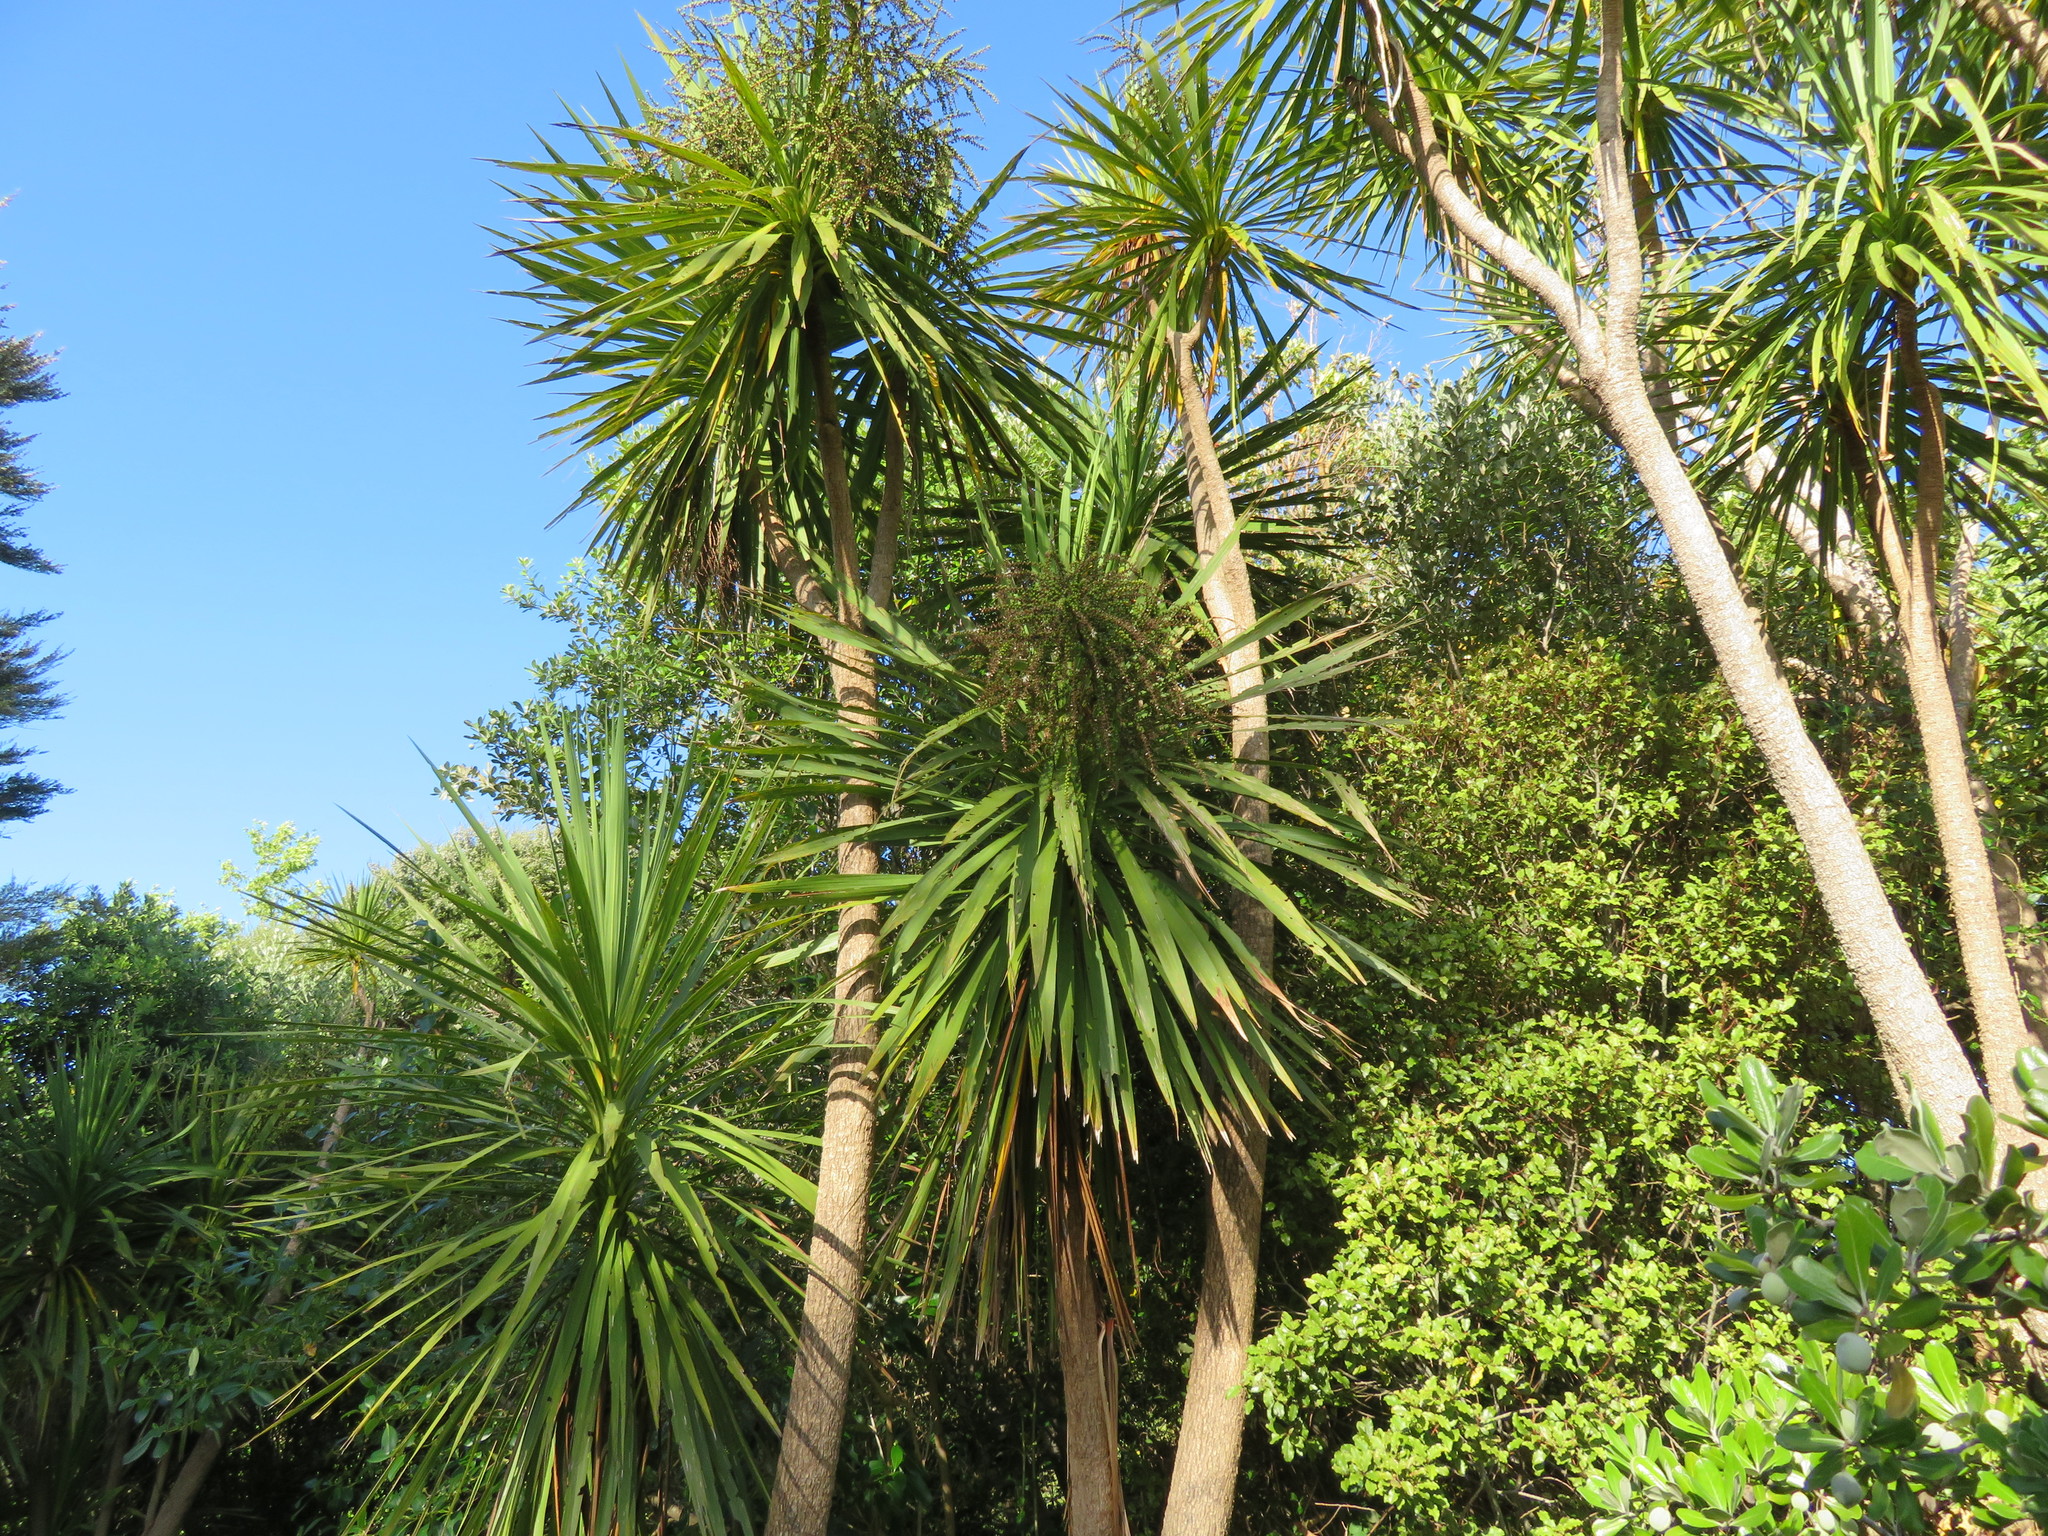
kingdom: Plantae
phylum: Tracheophyta
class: Liliopsida
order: Asparagales
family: Asparagaceae
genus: Cordyline
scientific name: Cordyline australis
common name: Cabbage-palm
